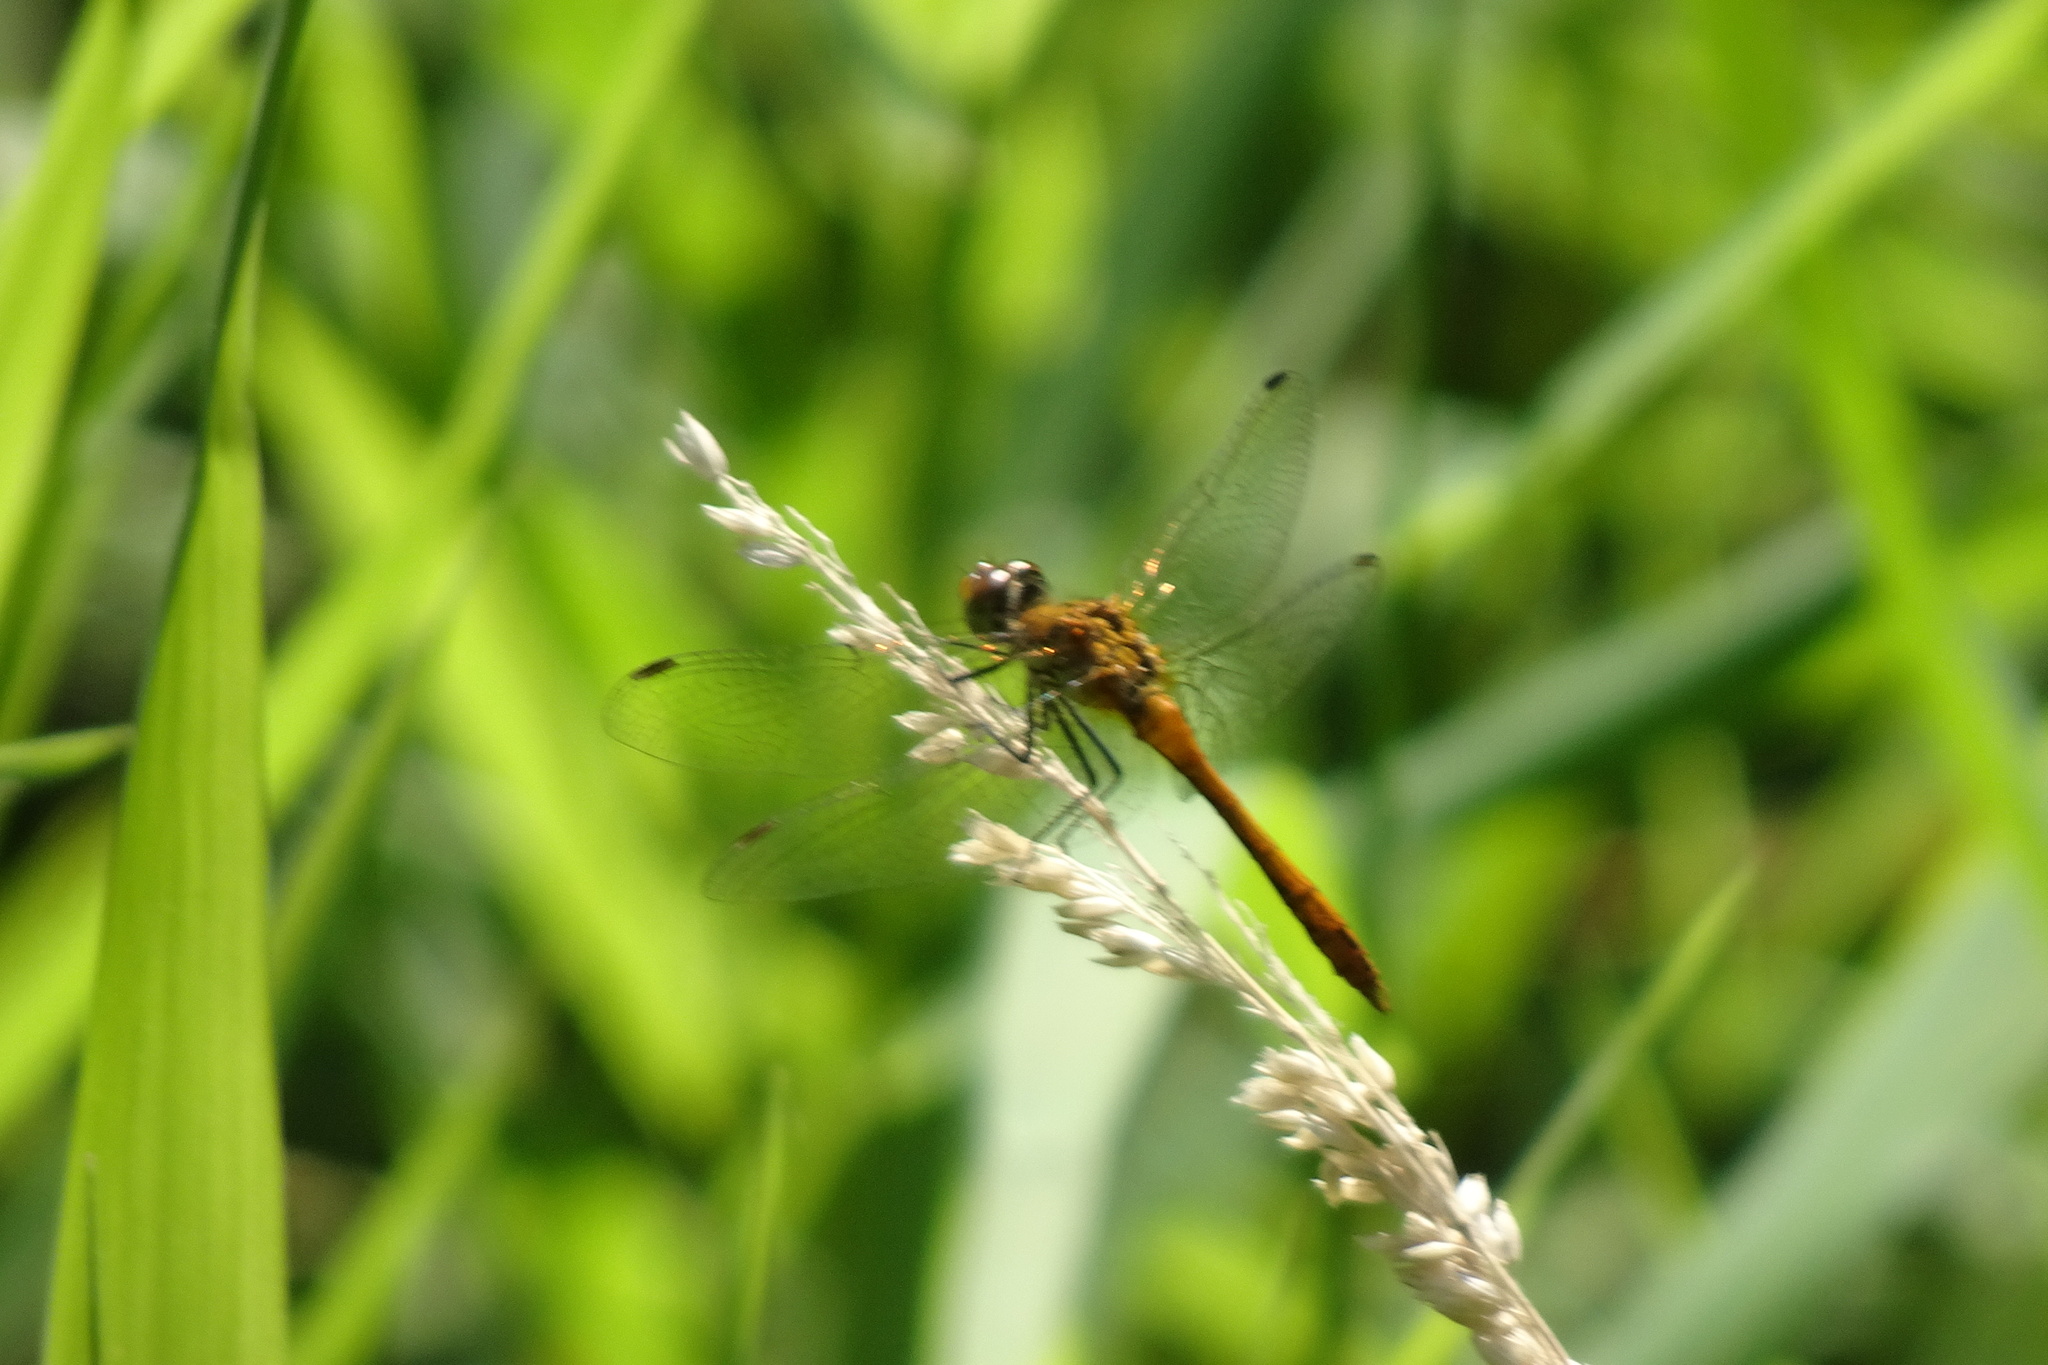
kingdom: Animalia
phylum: Arthropoda
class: Insecta
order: Odonata
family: Libellulidae
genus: Sympetrum
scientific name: Sympetrum sanguineum
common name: Ruddy darter
